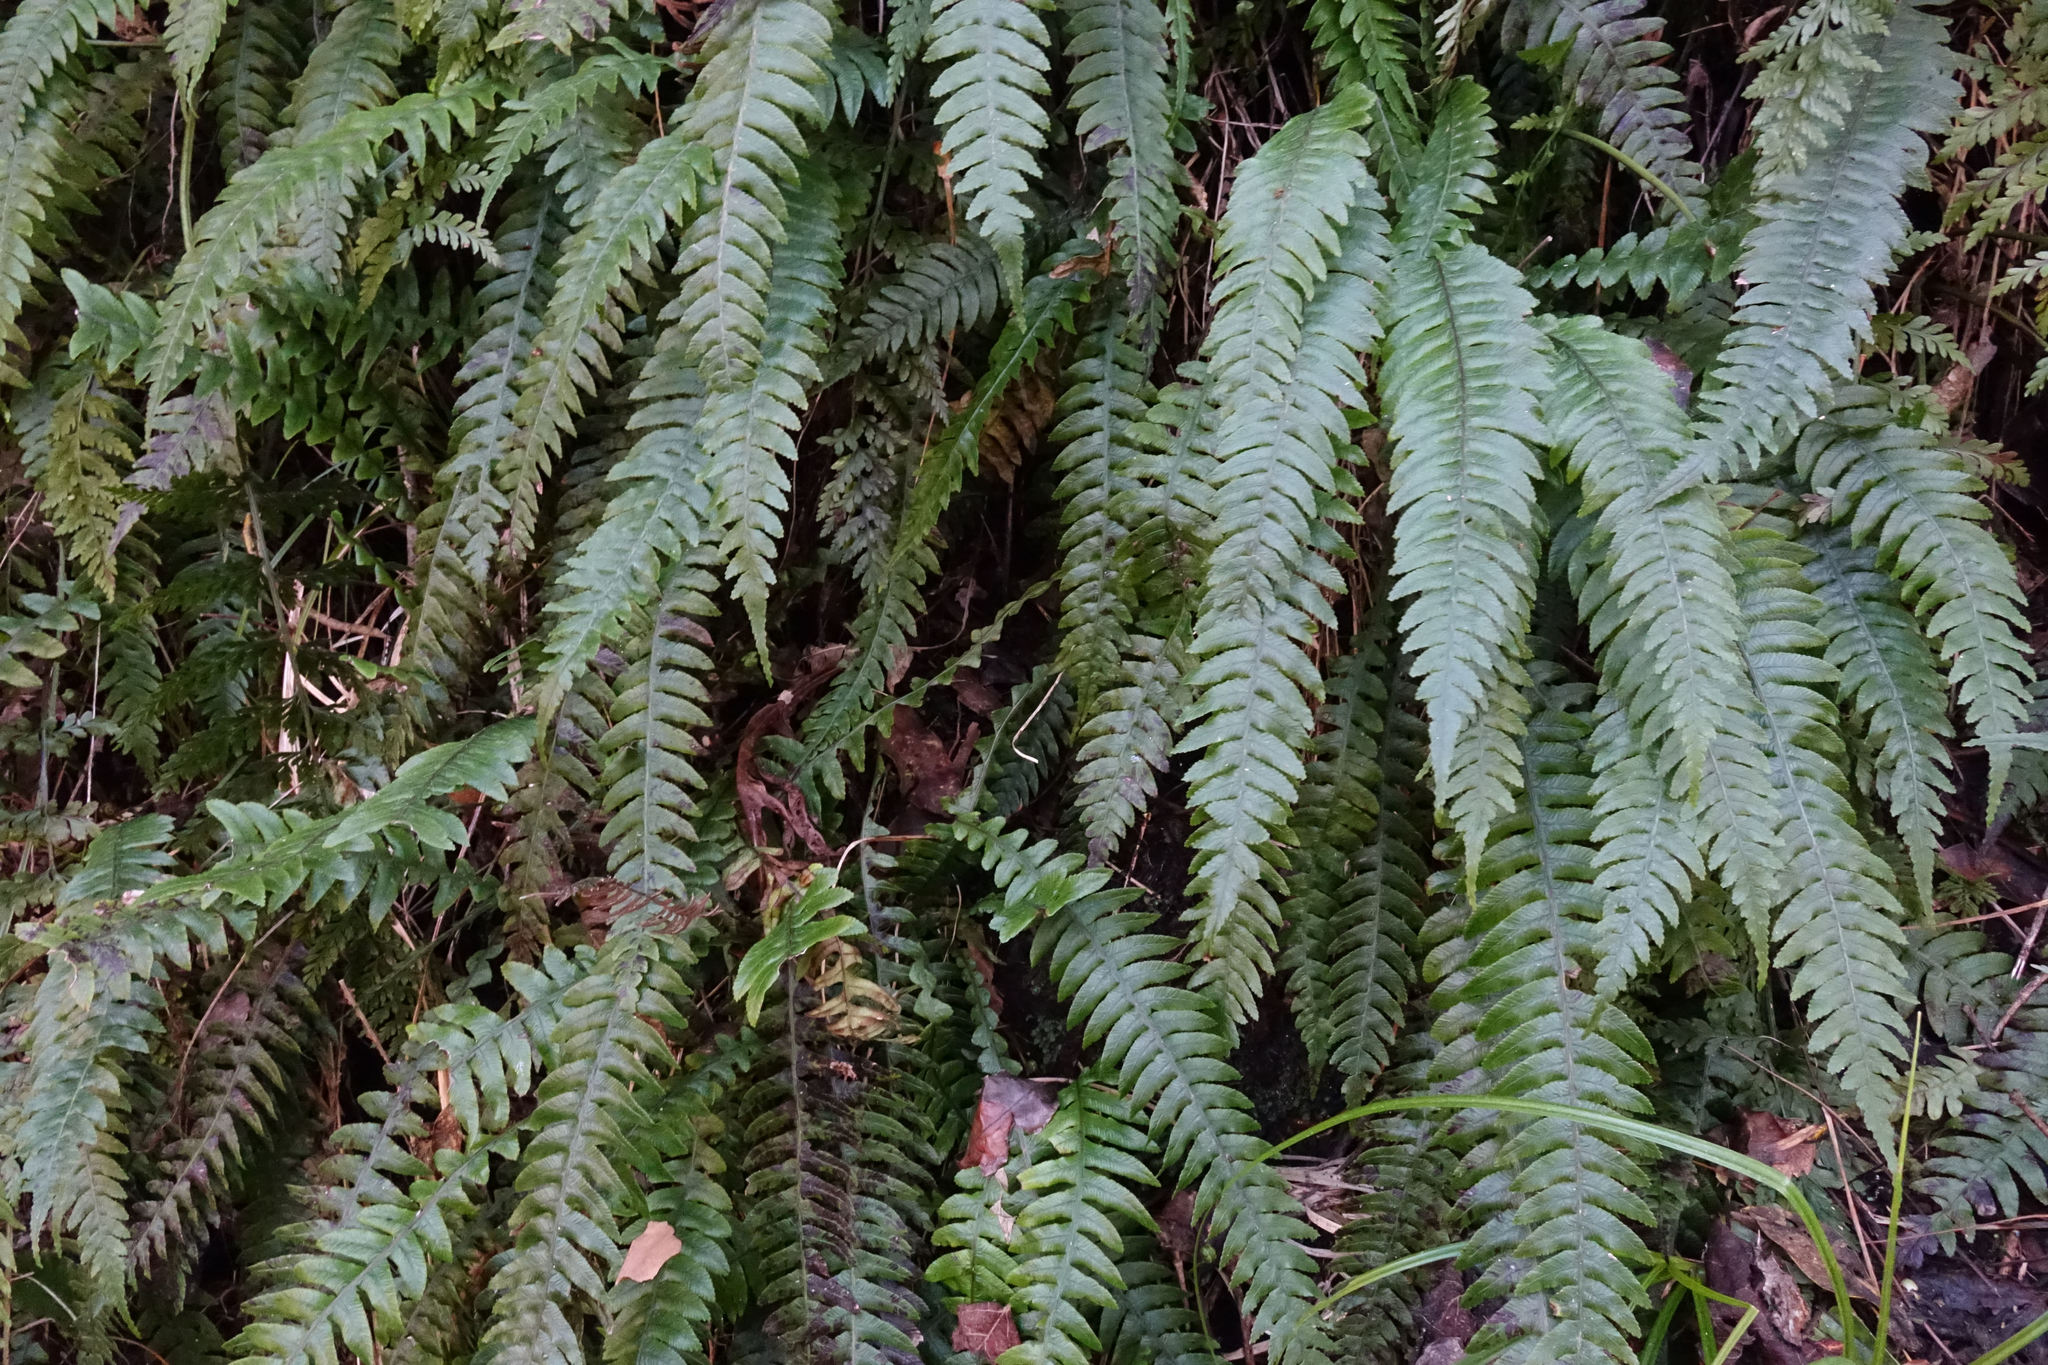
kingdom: Plantae
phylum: Tracheophyta
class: Polypodiopsida
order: Polypodiales
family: Blechnaceae
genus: Austroblechnum
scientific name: Austroblechnum lanceolatum
